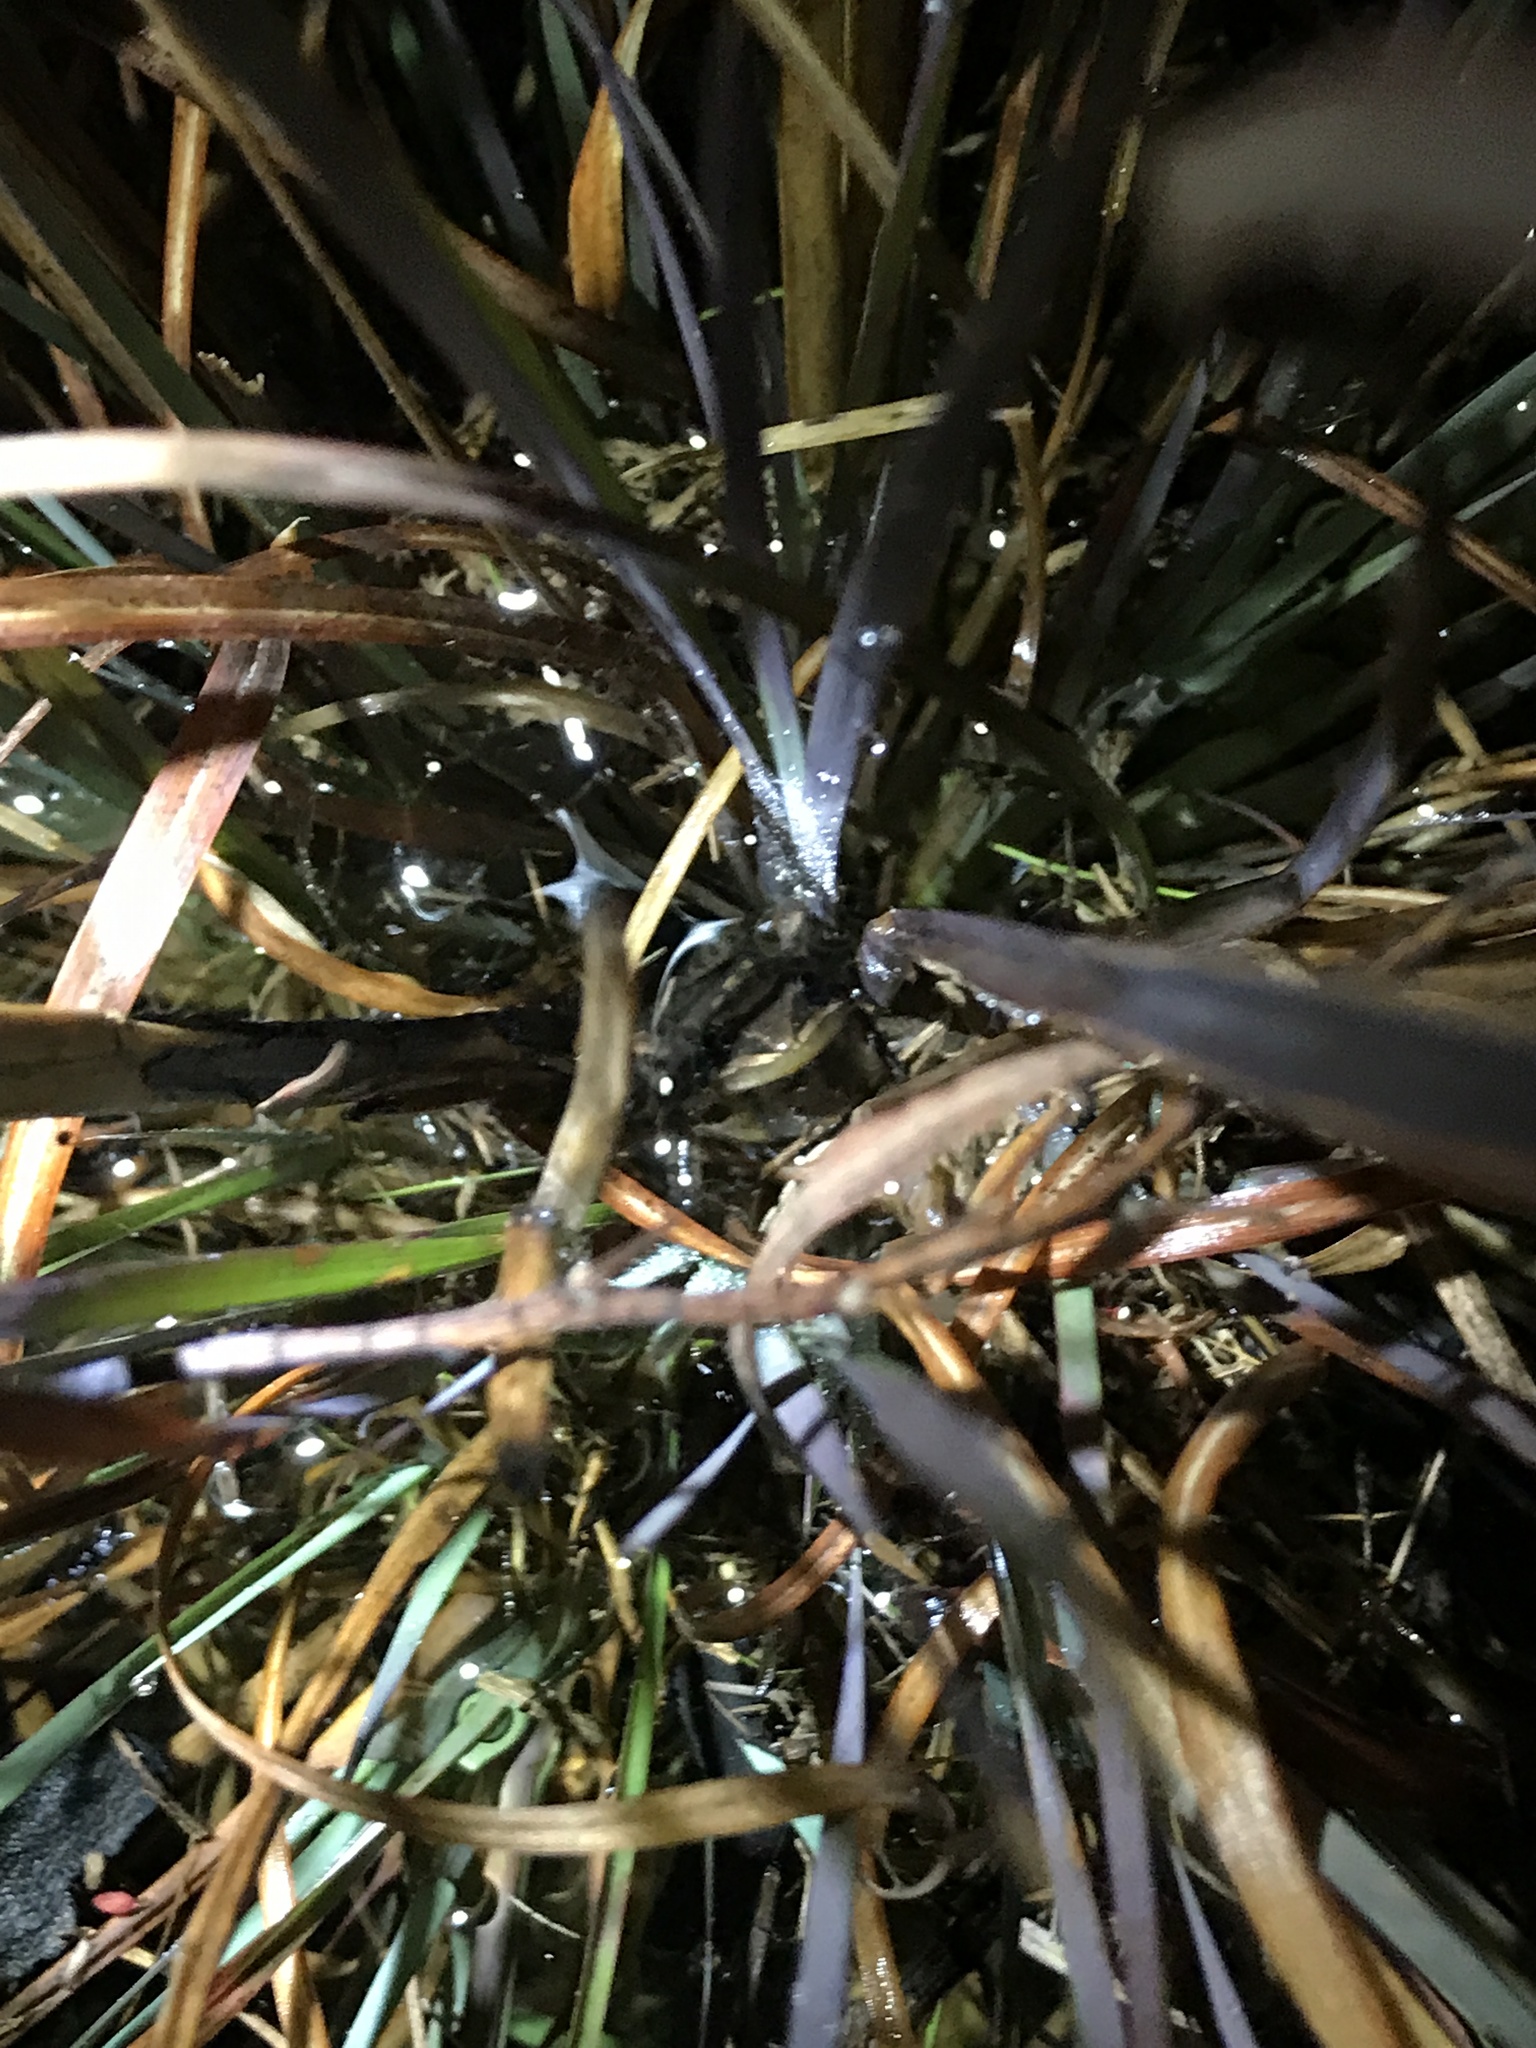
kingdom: Animalia
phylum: Chordata
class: Amphibia
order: Anura
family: Hylidae
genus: Pseudacris
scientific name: Pseudacris nigrita
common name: Southern chorus frog
